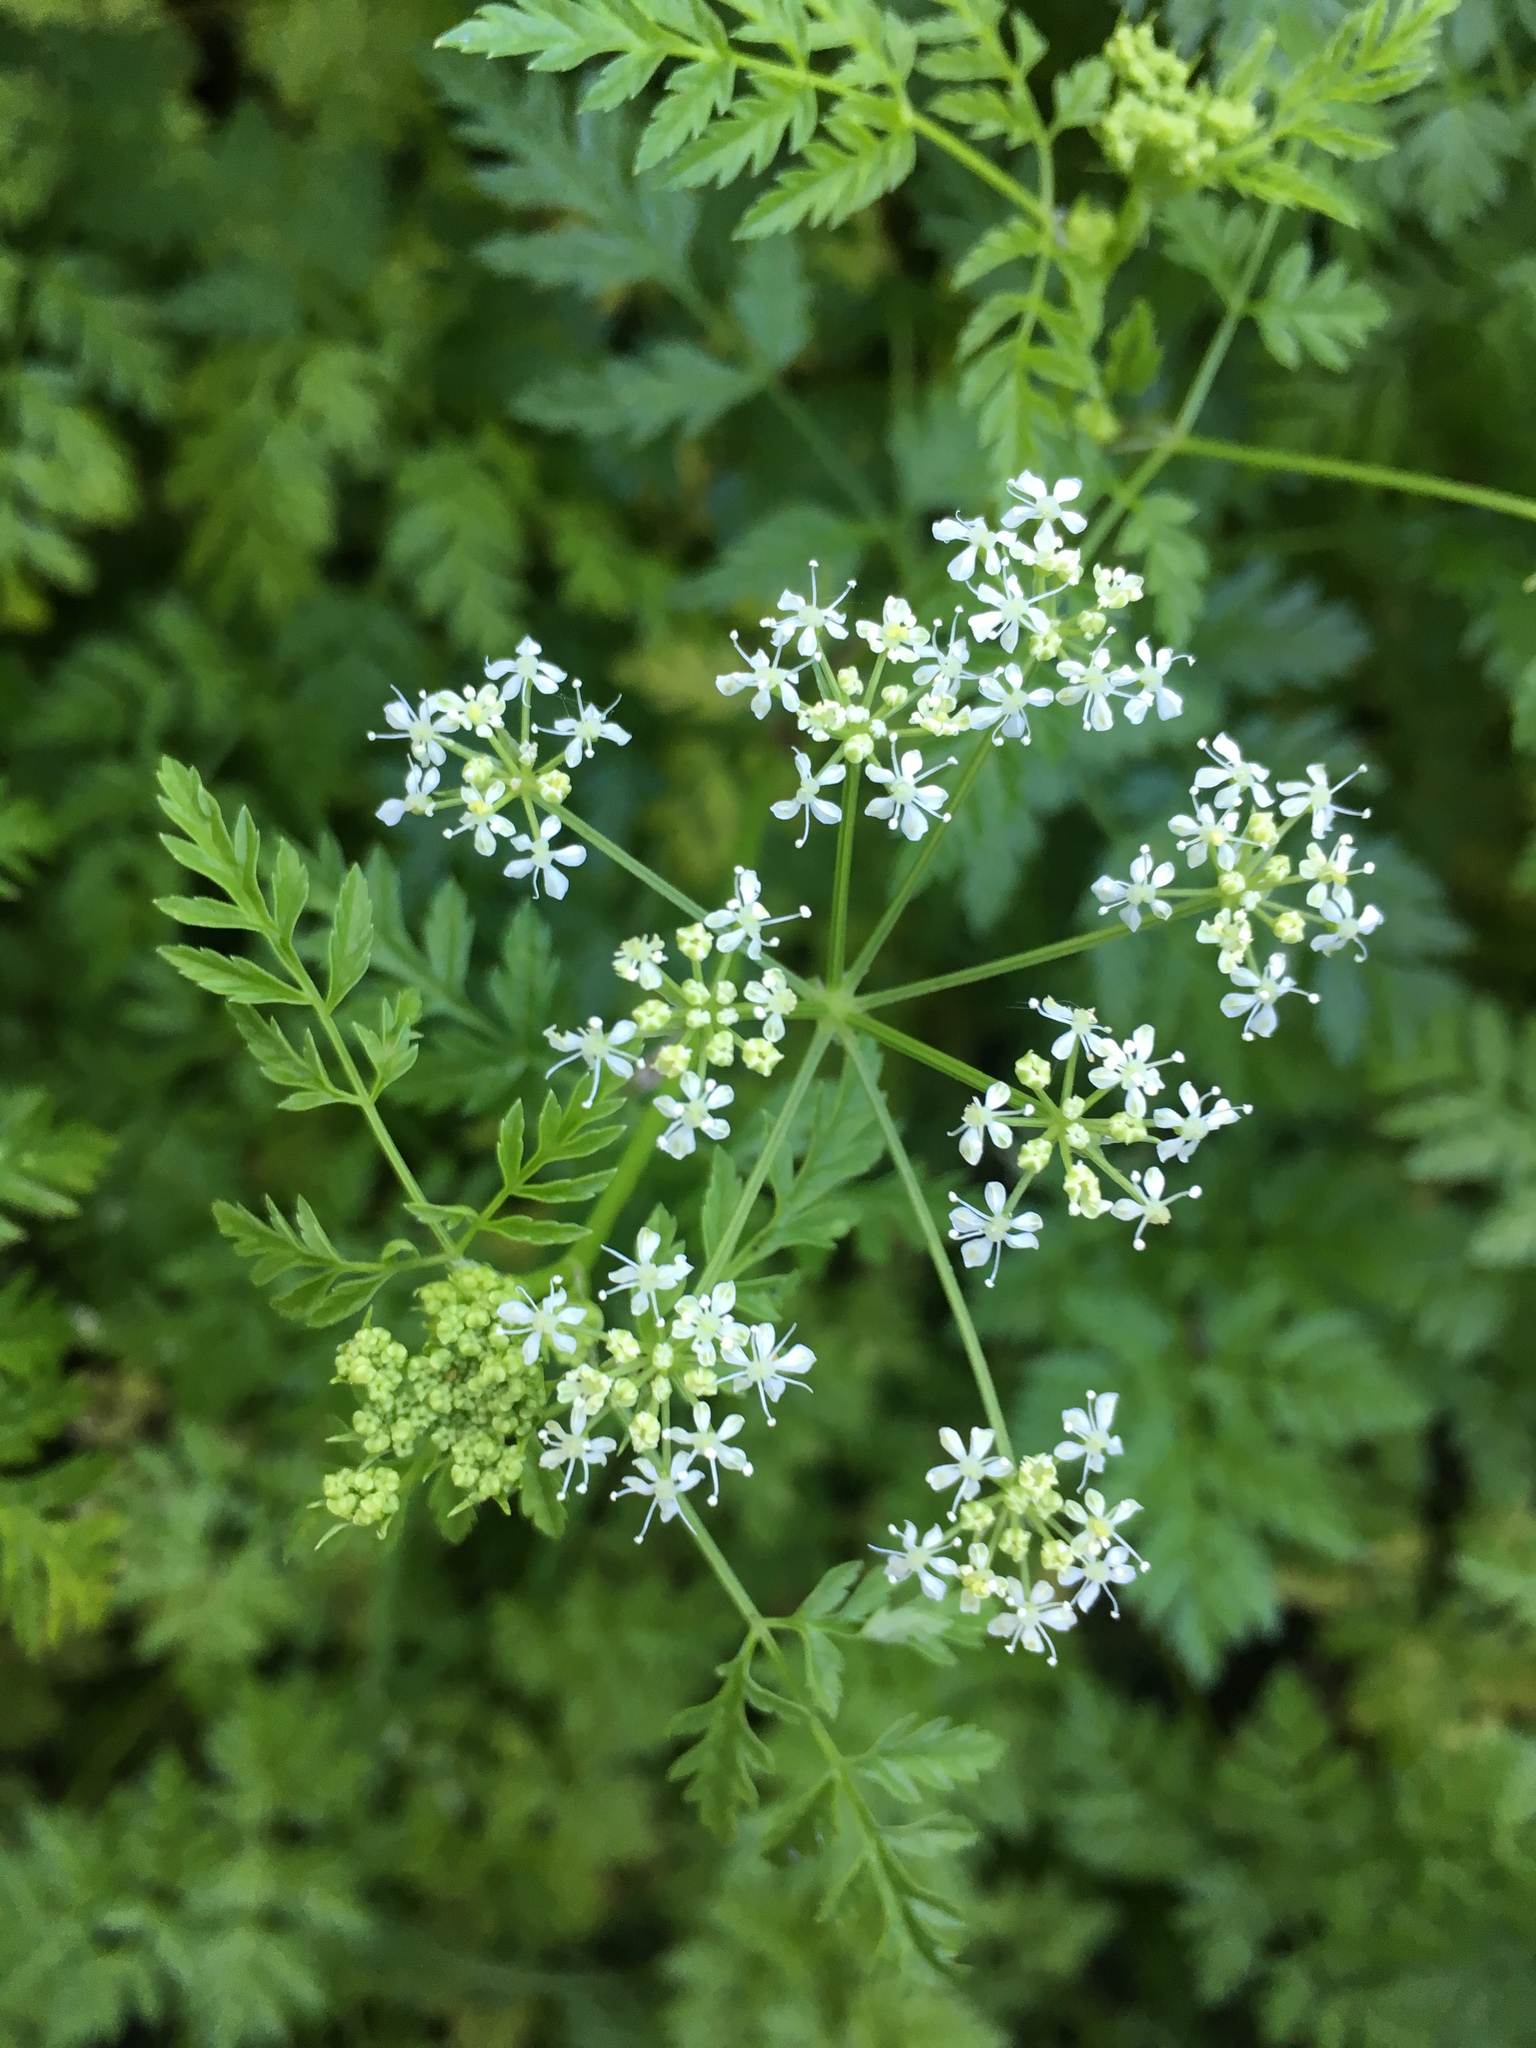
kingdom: Plantae
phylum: Tracheophyta
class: Magnoliopsida
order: Apiales
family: Apiaceae
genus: Conium
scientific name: Conium maculatum
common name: Hemlock
